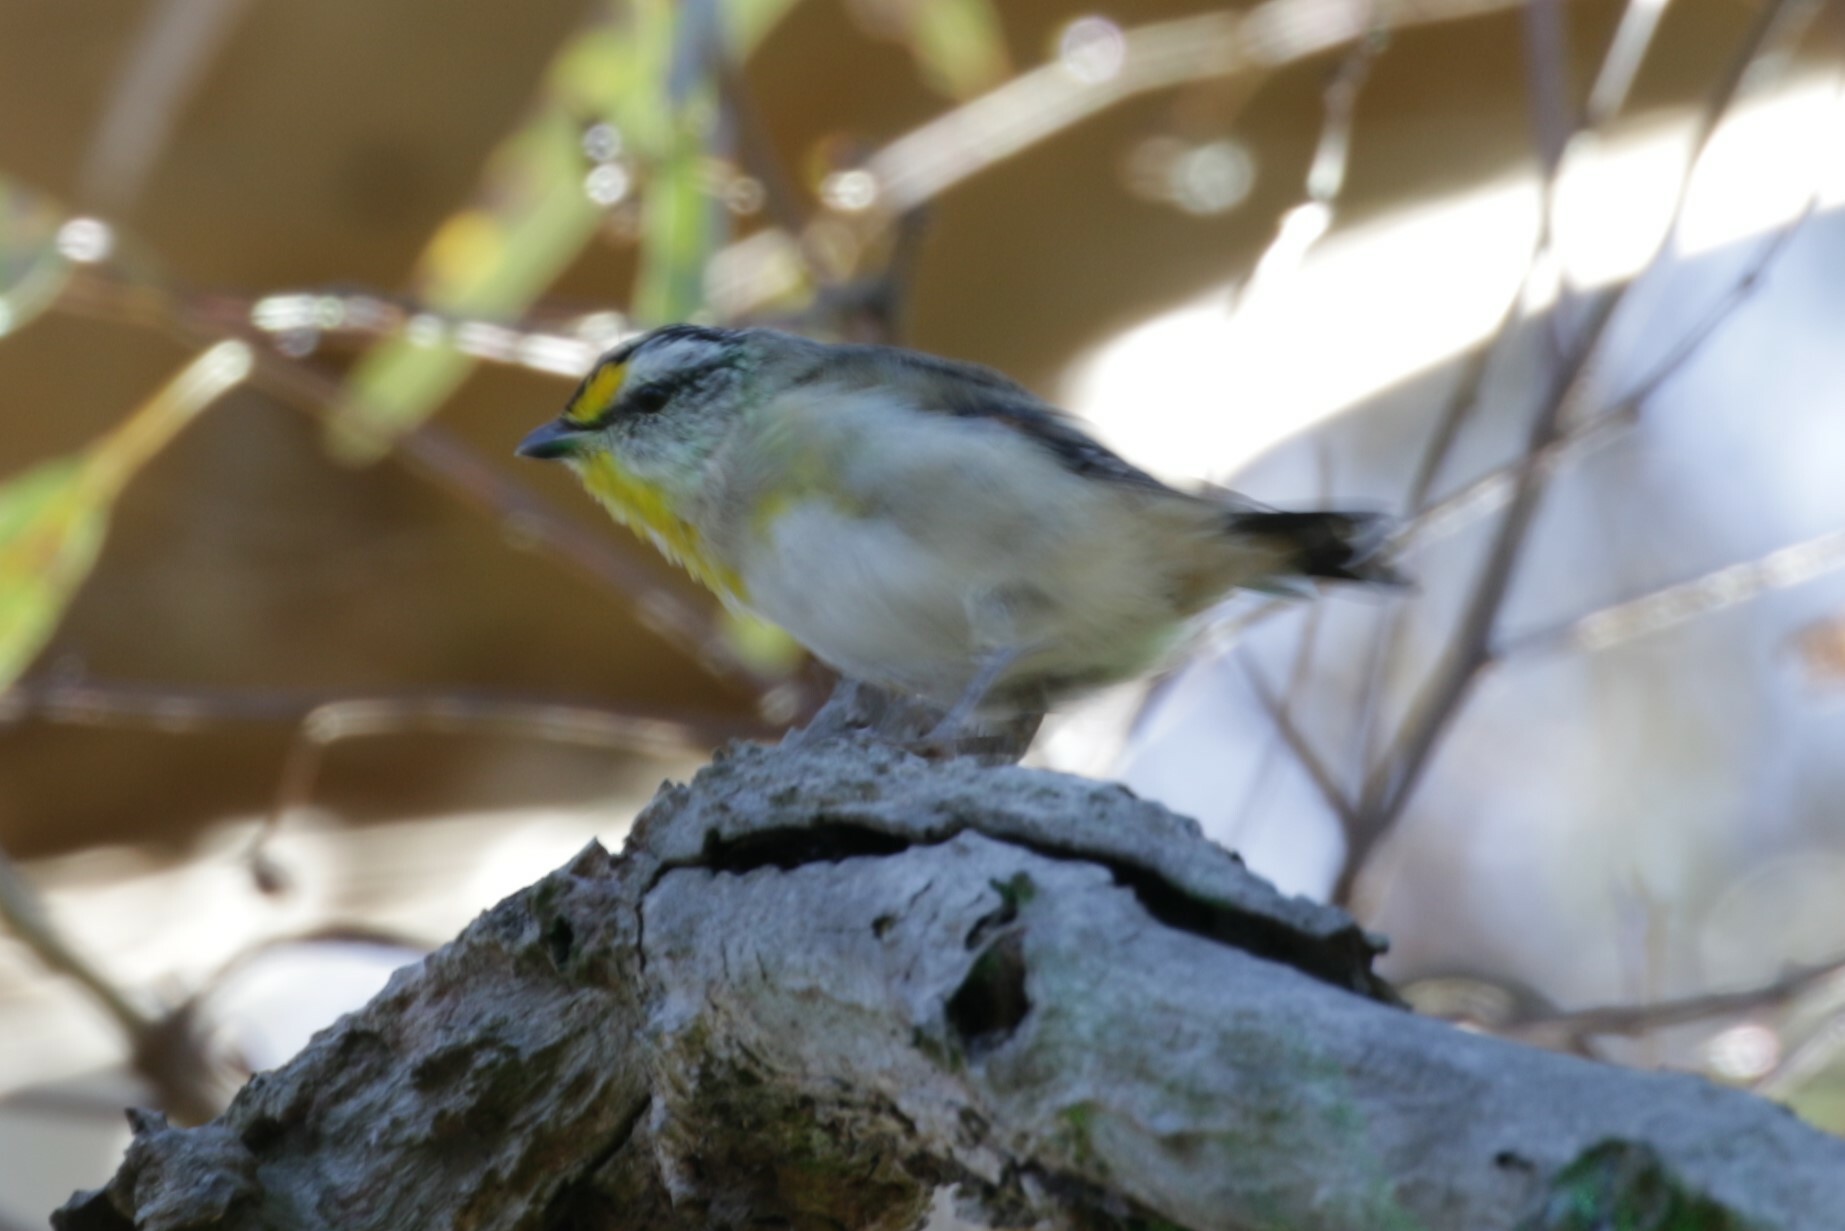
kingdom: Animalia
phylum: Chordata
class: Aves
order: Passeriformes
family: Pardalotidae
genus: Pardalotus
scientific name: Pardalotus striatus
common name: Striated pardalote
